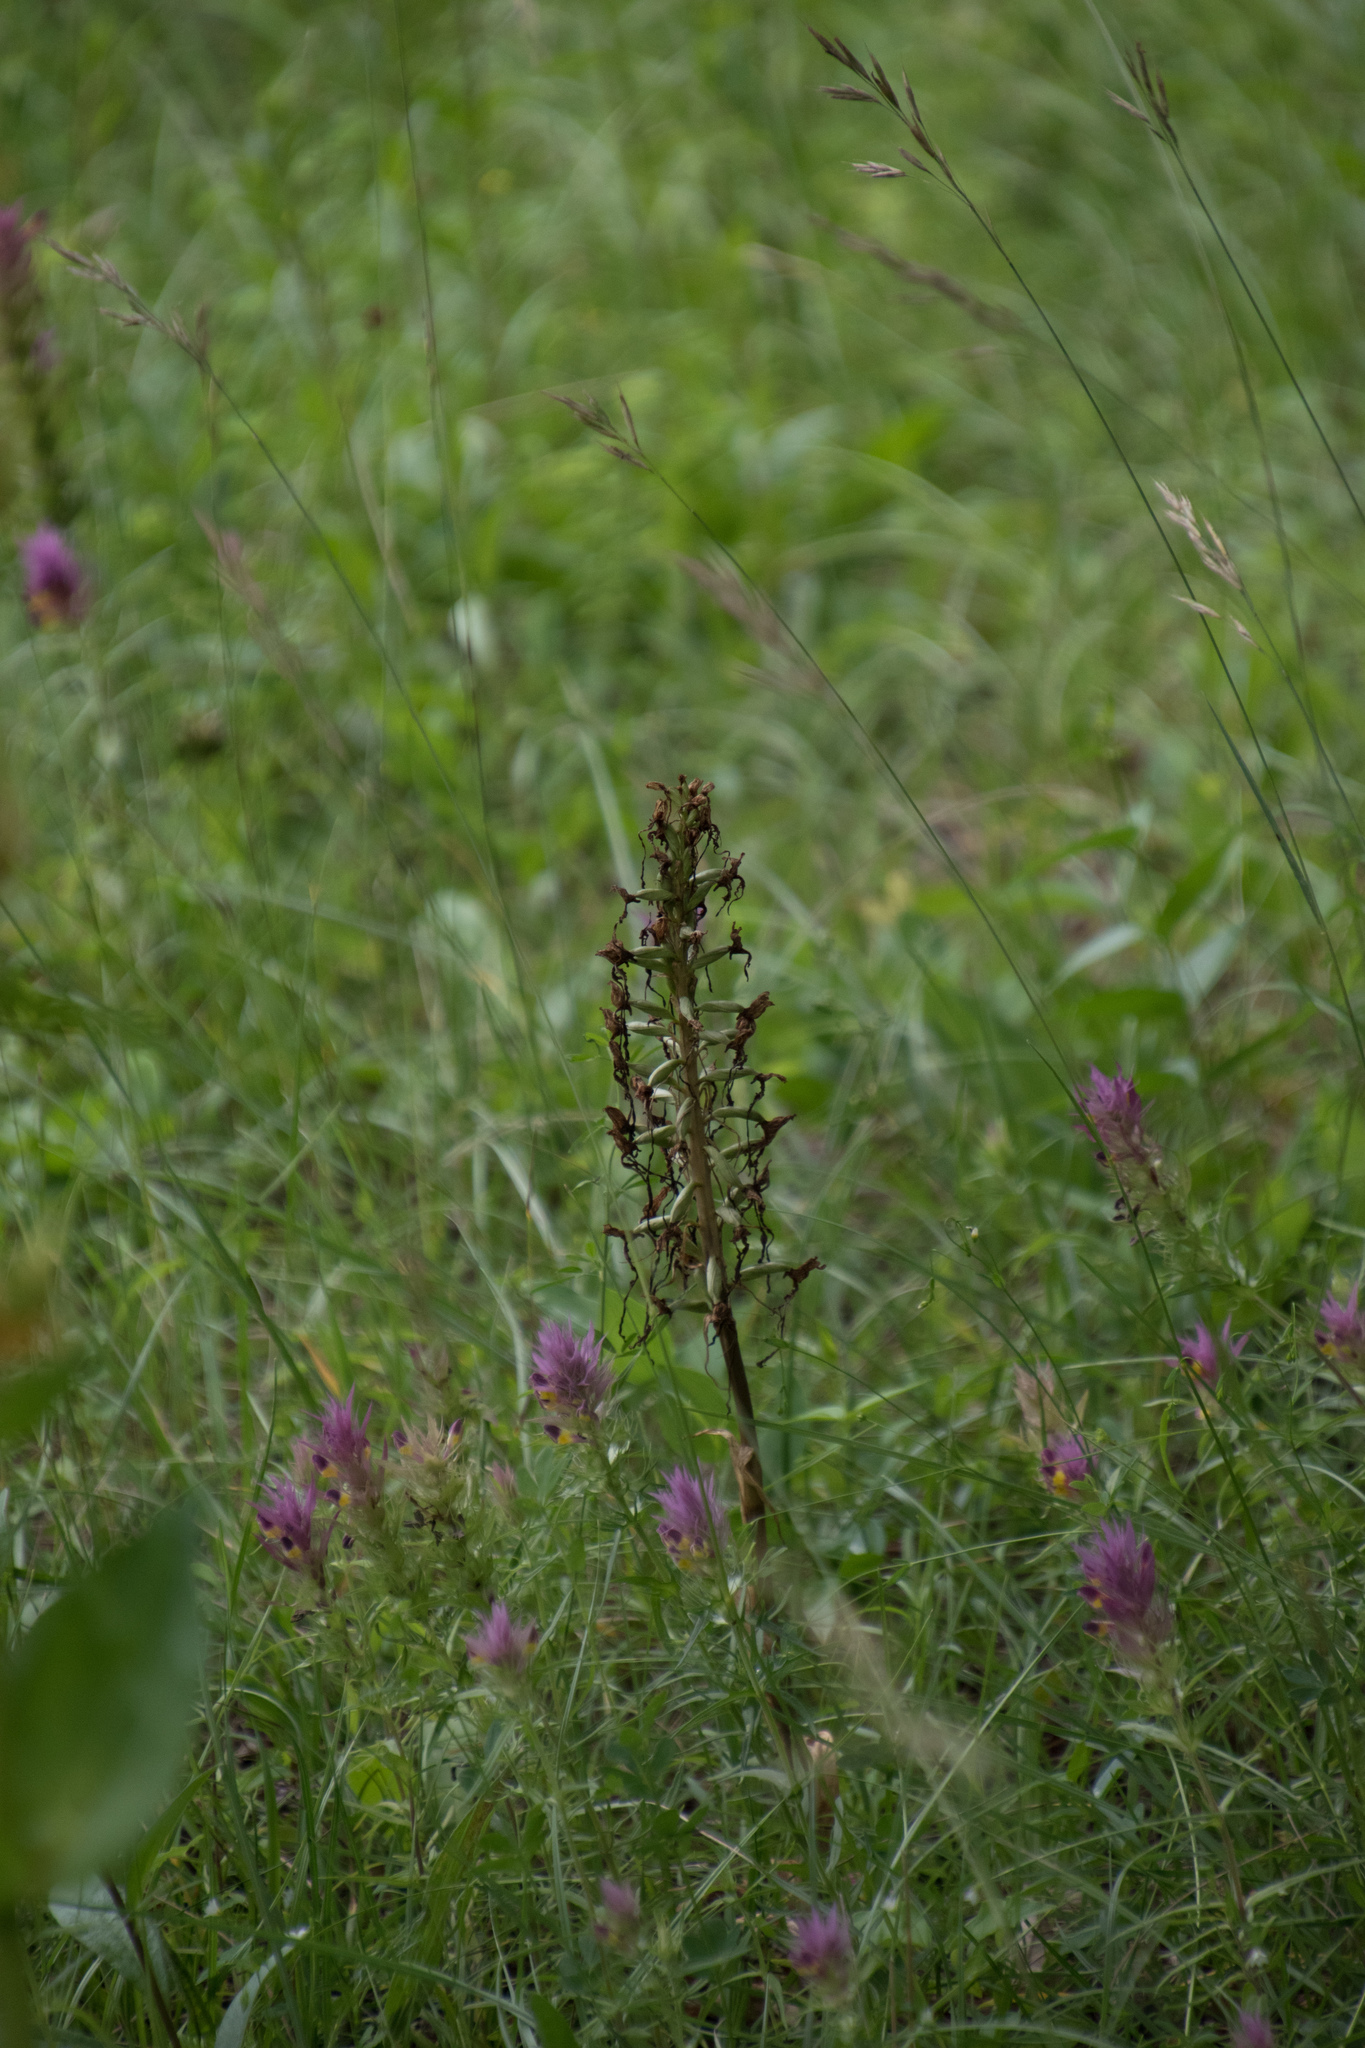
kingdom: Plantae
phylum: Tracheophyta
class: Liliopsida
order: Asparagales
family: Orchidaceae
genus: Himantoglossum
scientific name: Himantoglossum hircinum
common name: Lizard orchid
